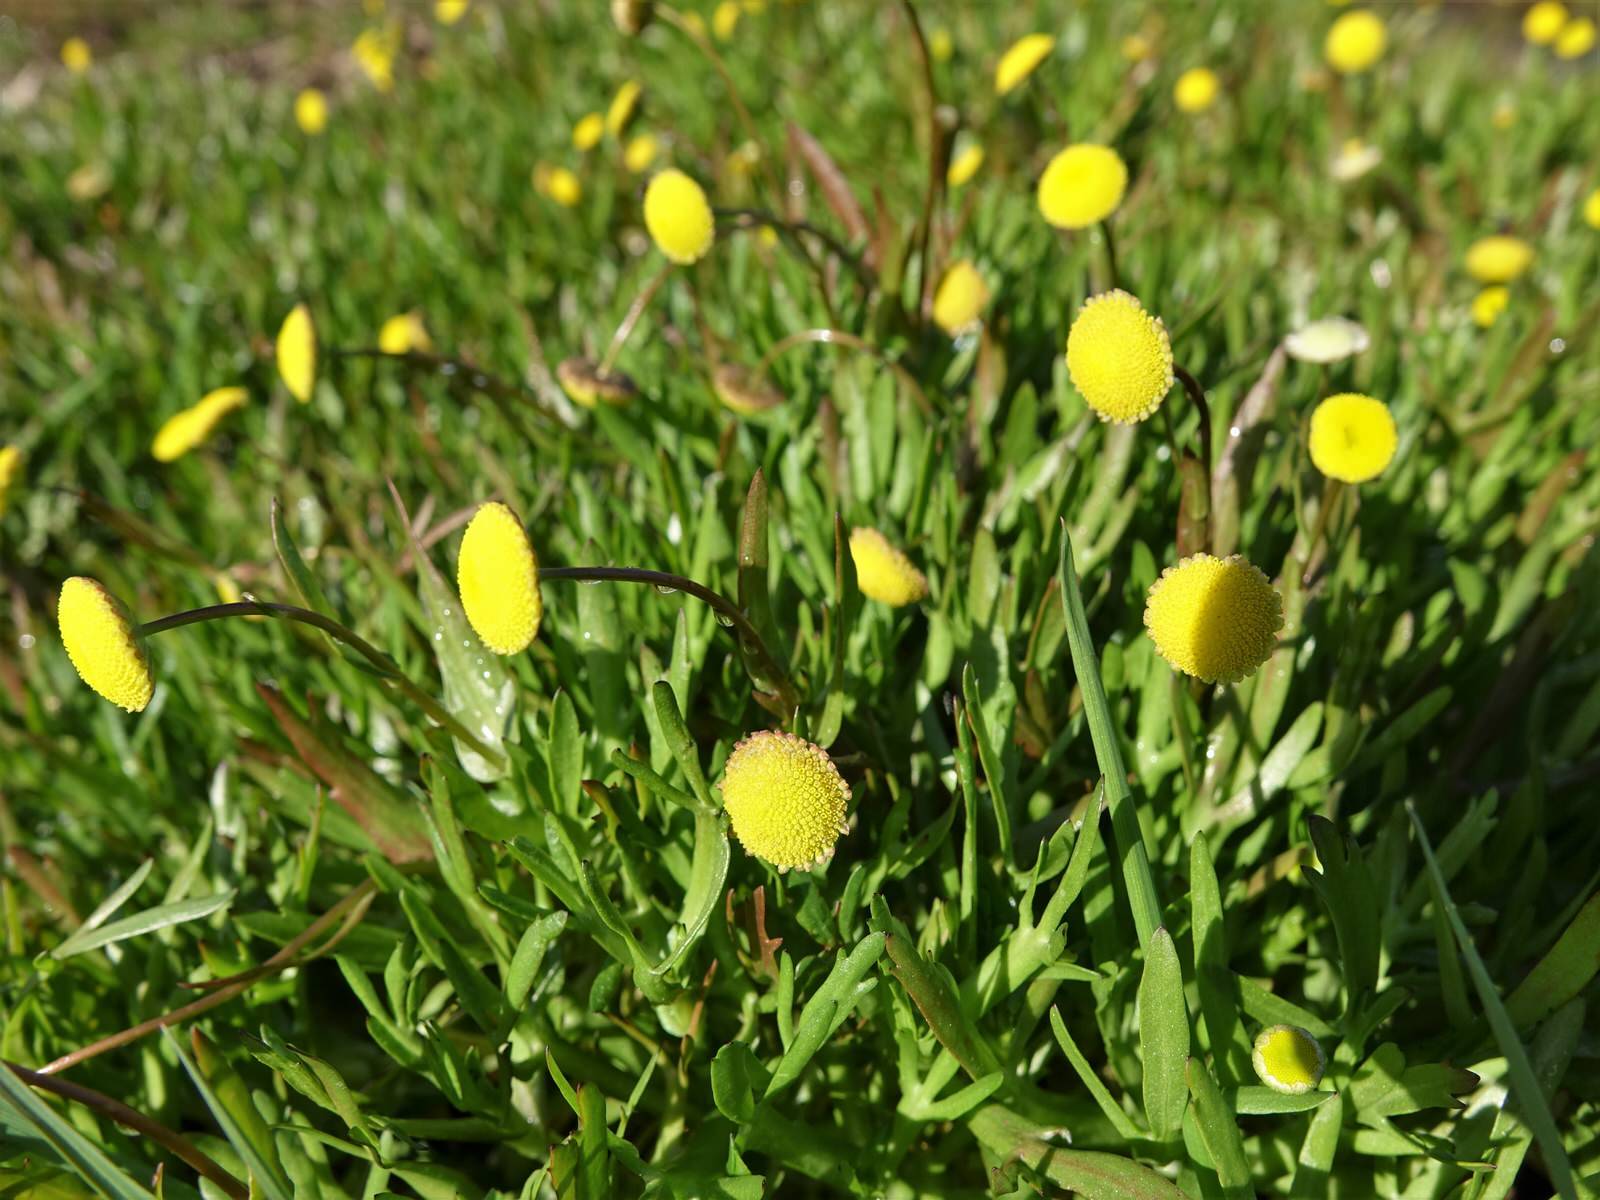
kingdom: Plantae
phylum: Tracheophyta
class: Magnoliopsida
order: Asterales
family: Asteraceae
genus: Cotula
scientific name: Cotula coronopifolia
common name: Buttonweed
